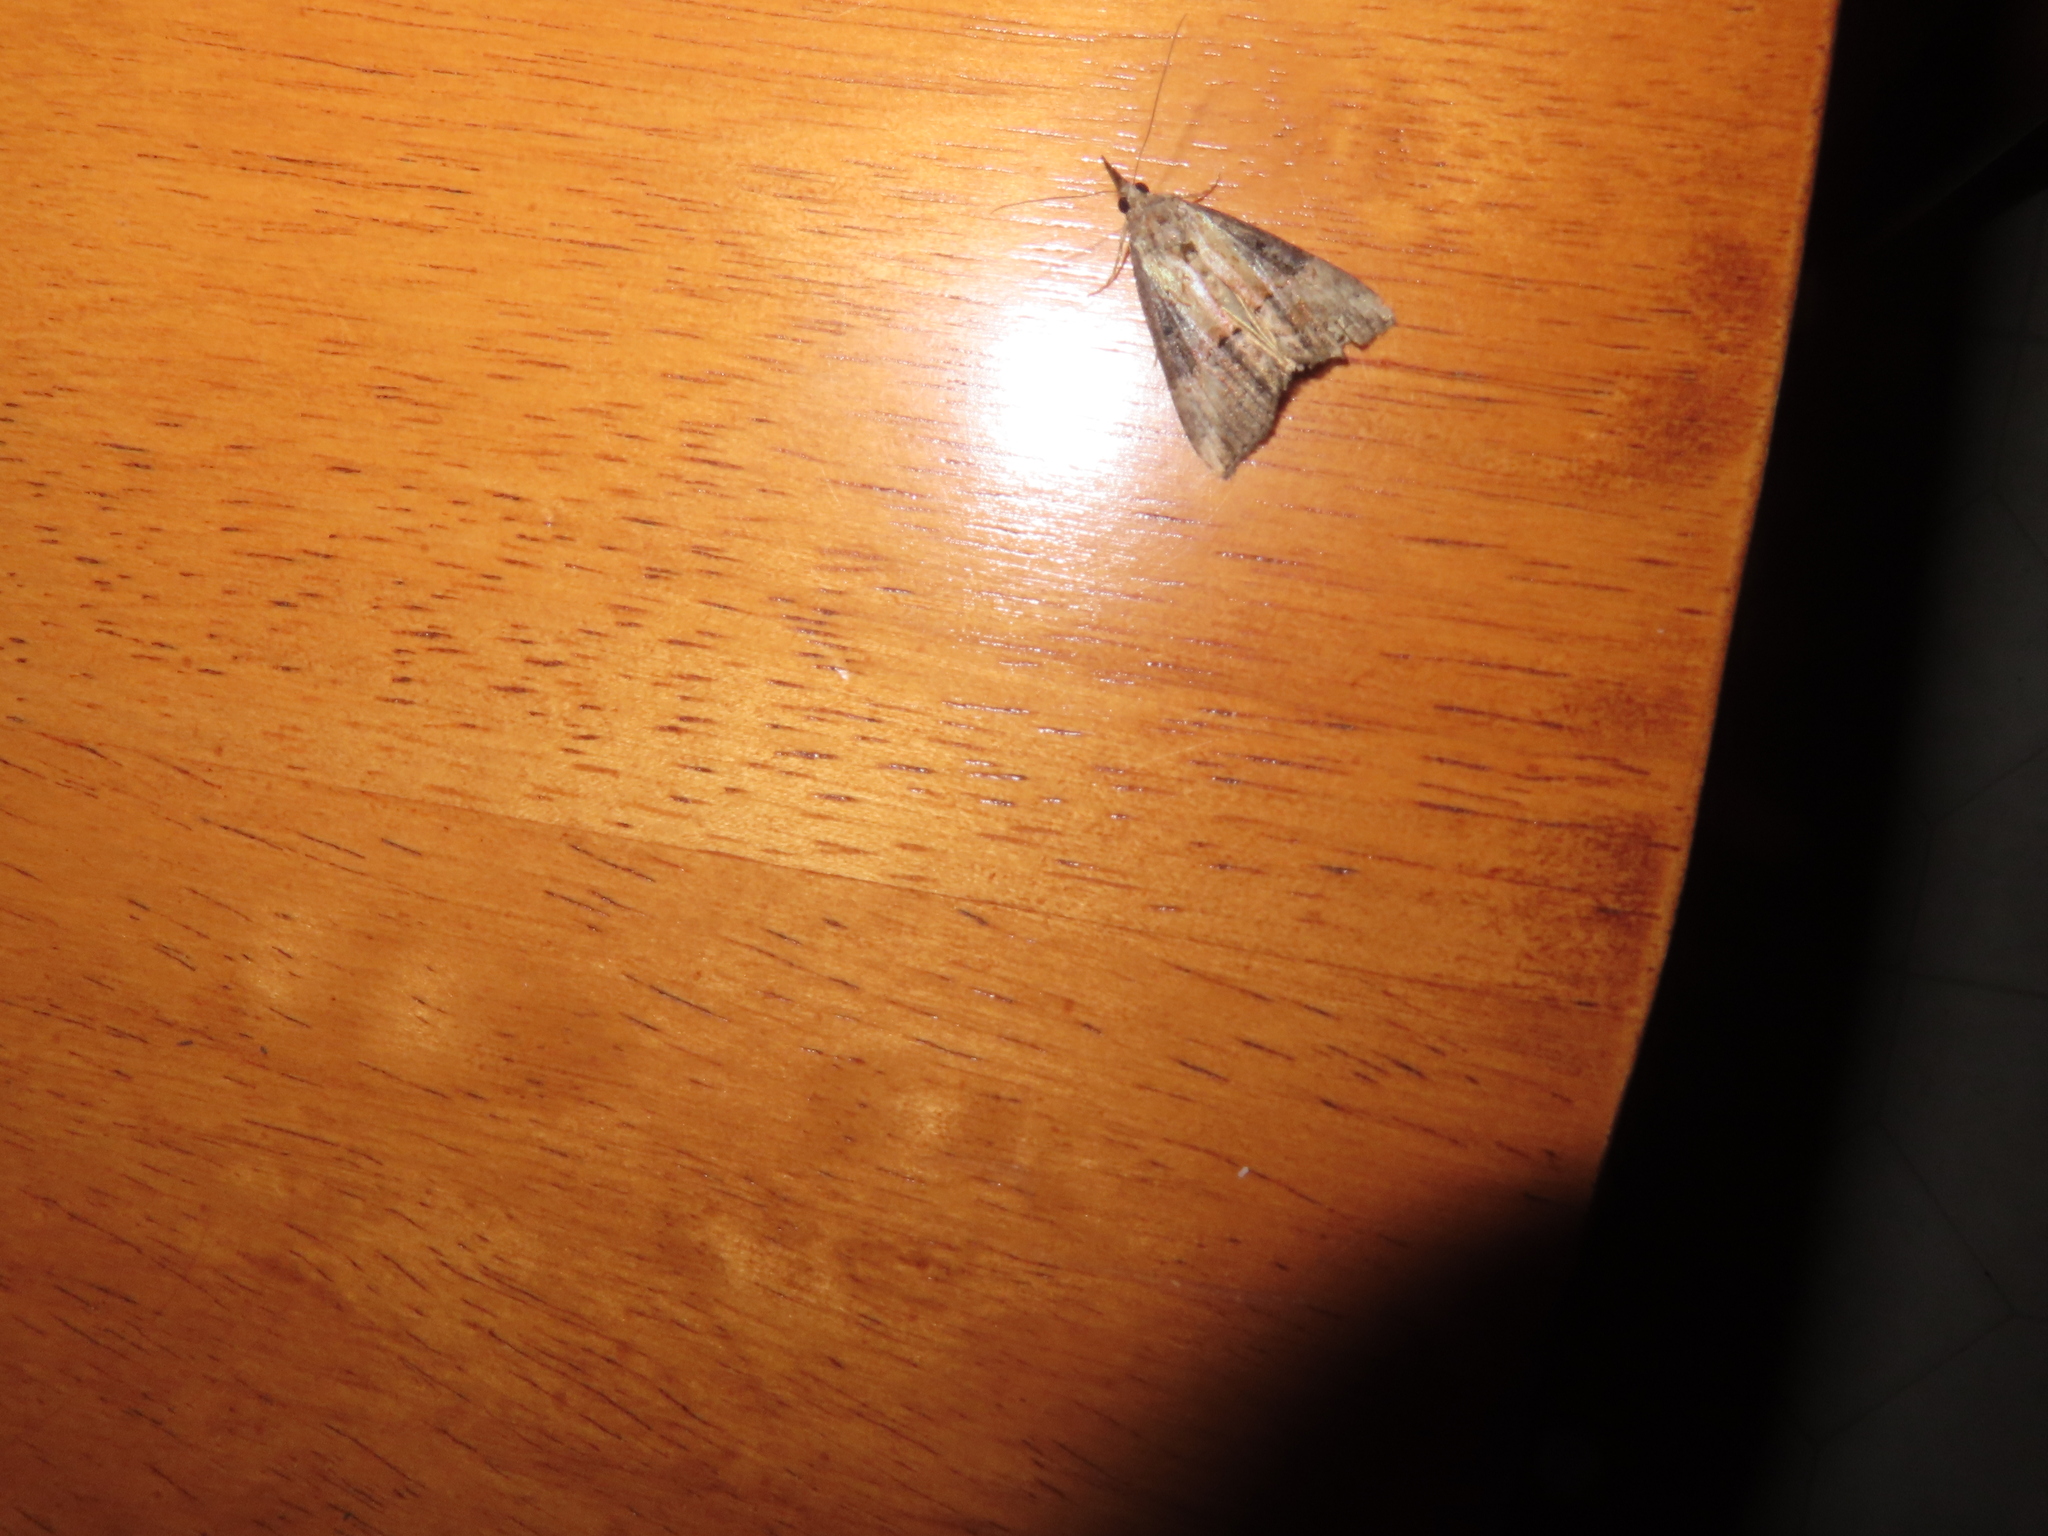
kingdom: Animalia
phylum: Arthropoda
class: Insecta
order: Lepidoptera
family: Erebidae
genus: Hypena
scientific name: Hypena scabra
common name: Green cloverworm
